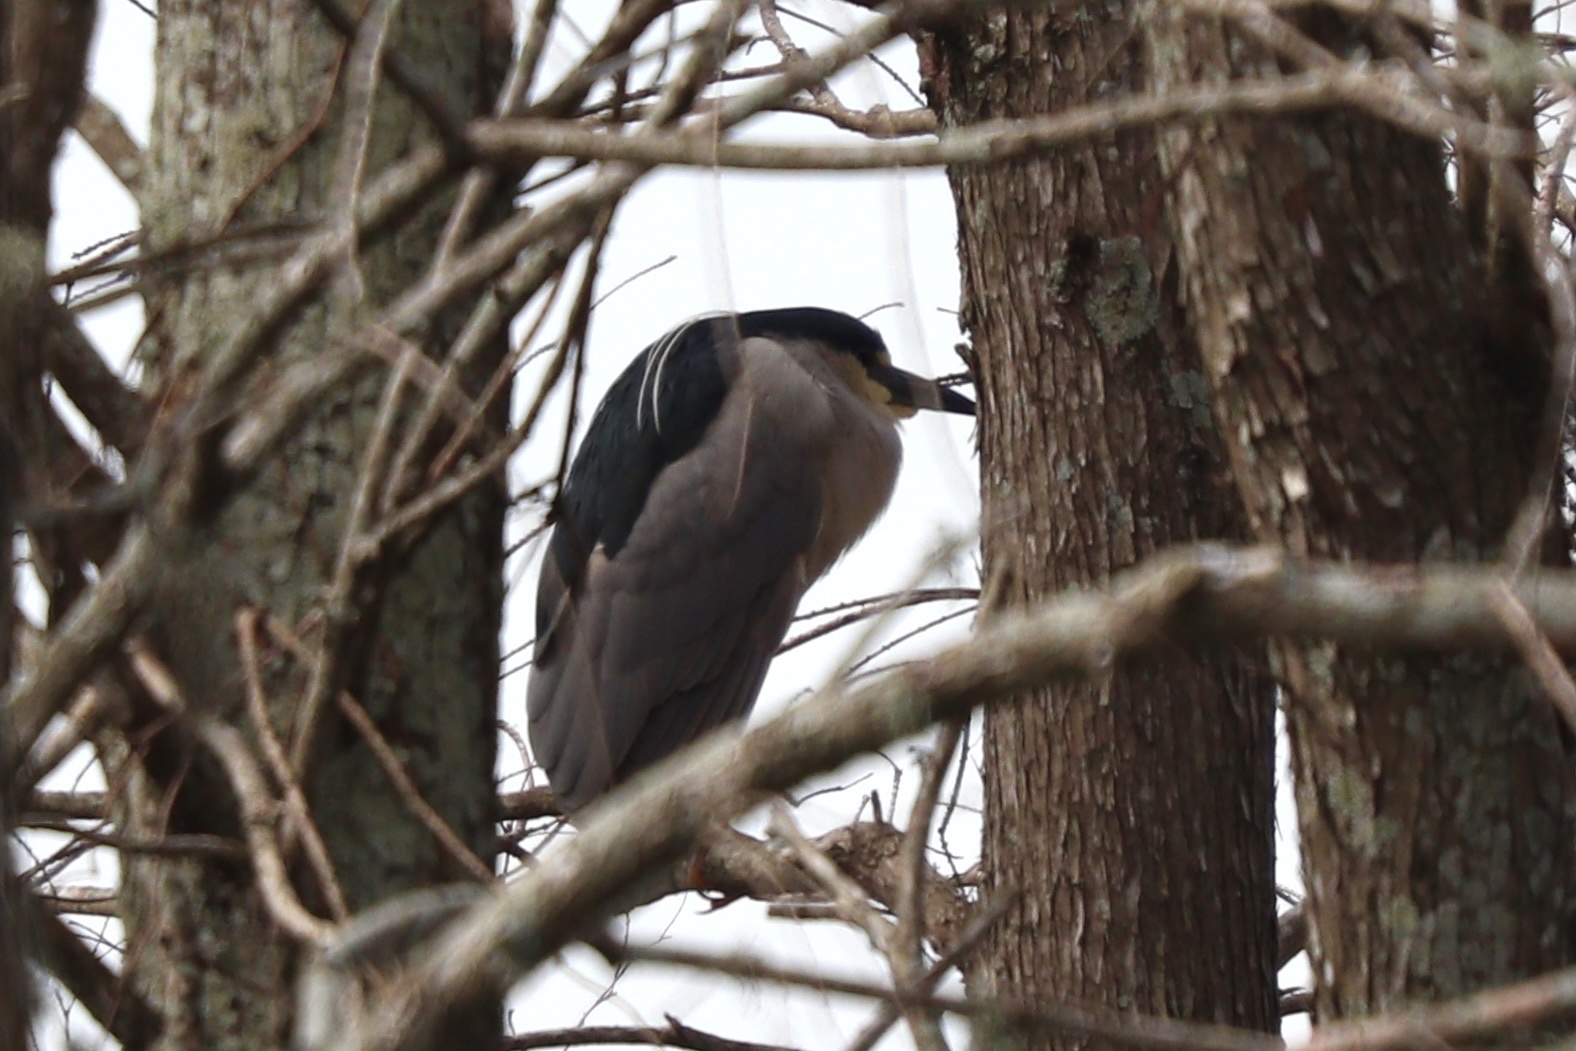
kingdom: Animalia
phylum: Chordata
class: Aves
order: Pelecaniformes
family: Ardeidae
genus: Nycticorax
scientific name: Nycticorax nycticorax
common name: Black-crowned night heron
